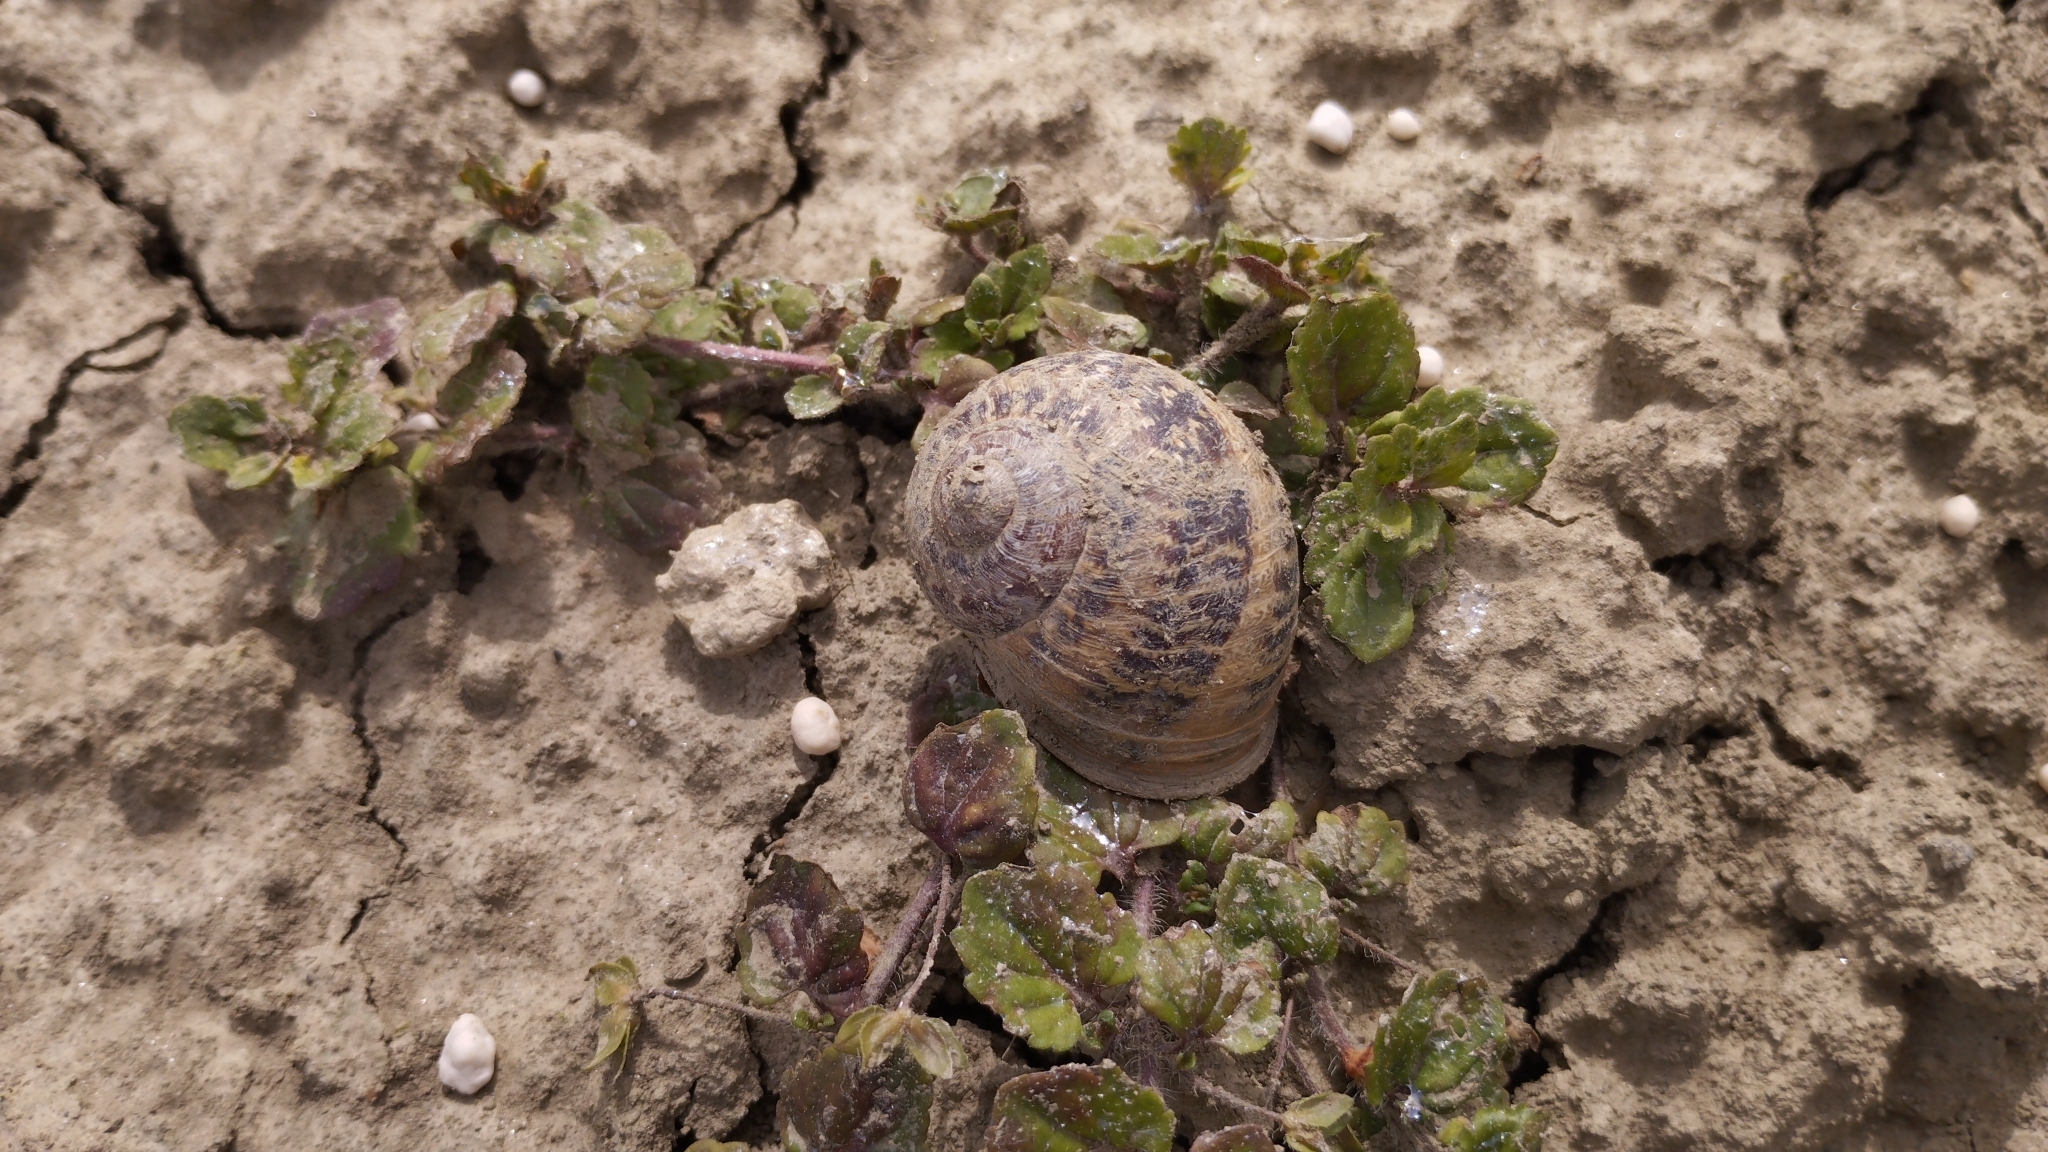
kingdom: Animalia
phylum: Mollusca
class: Gastropoda
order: Stylommatophora
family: Helicidae
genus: Cornu
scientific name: Cornu aspersum
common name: Brown garden snail
